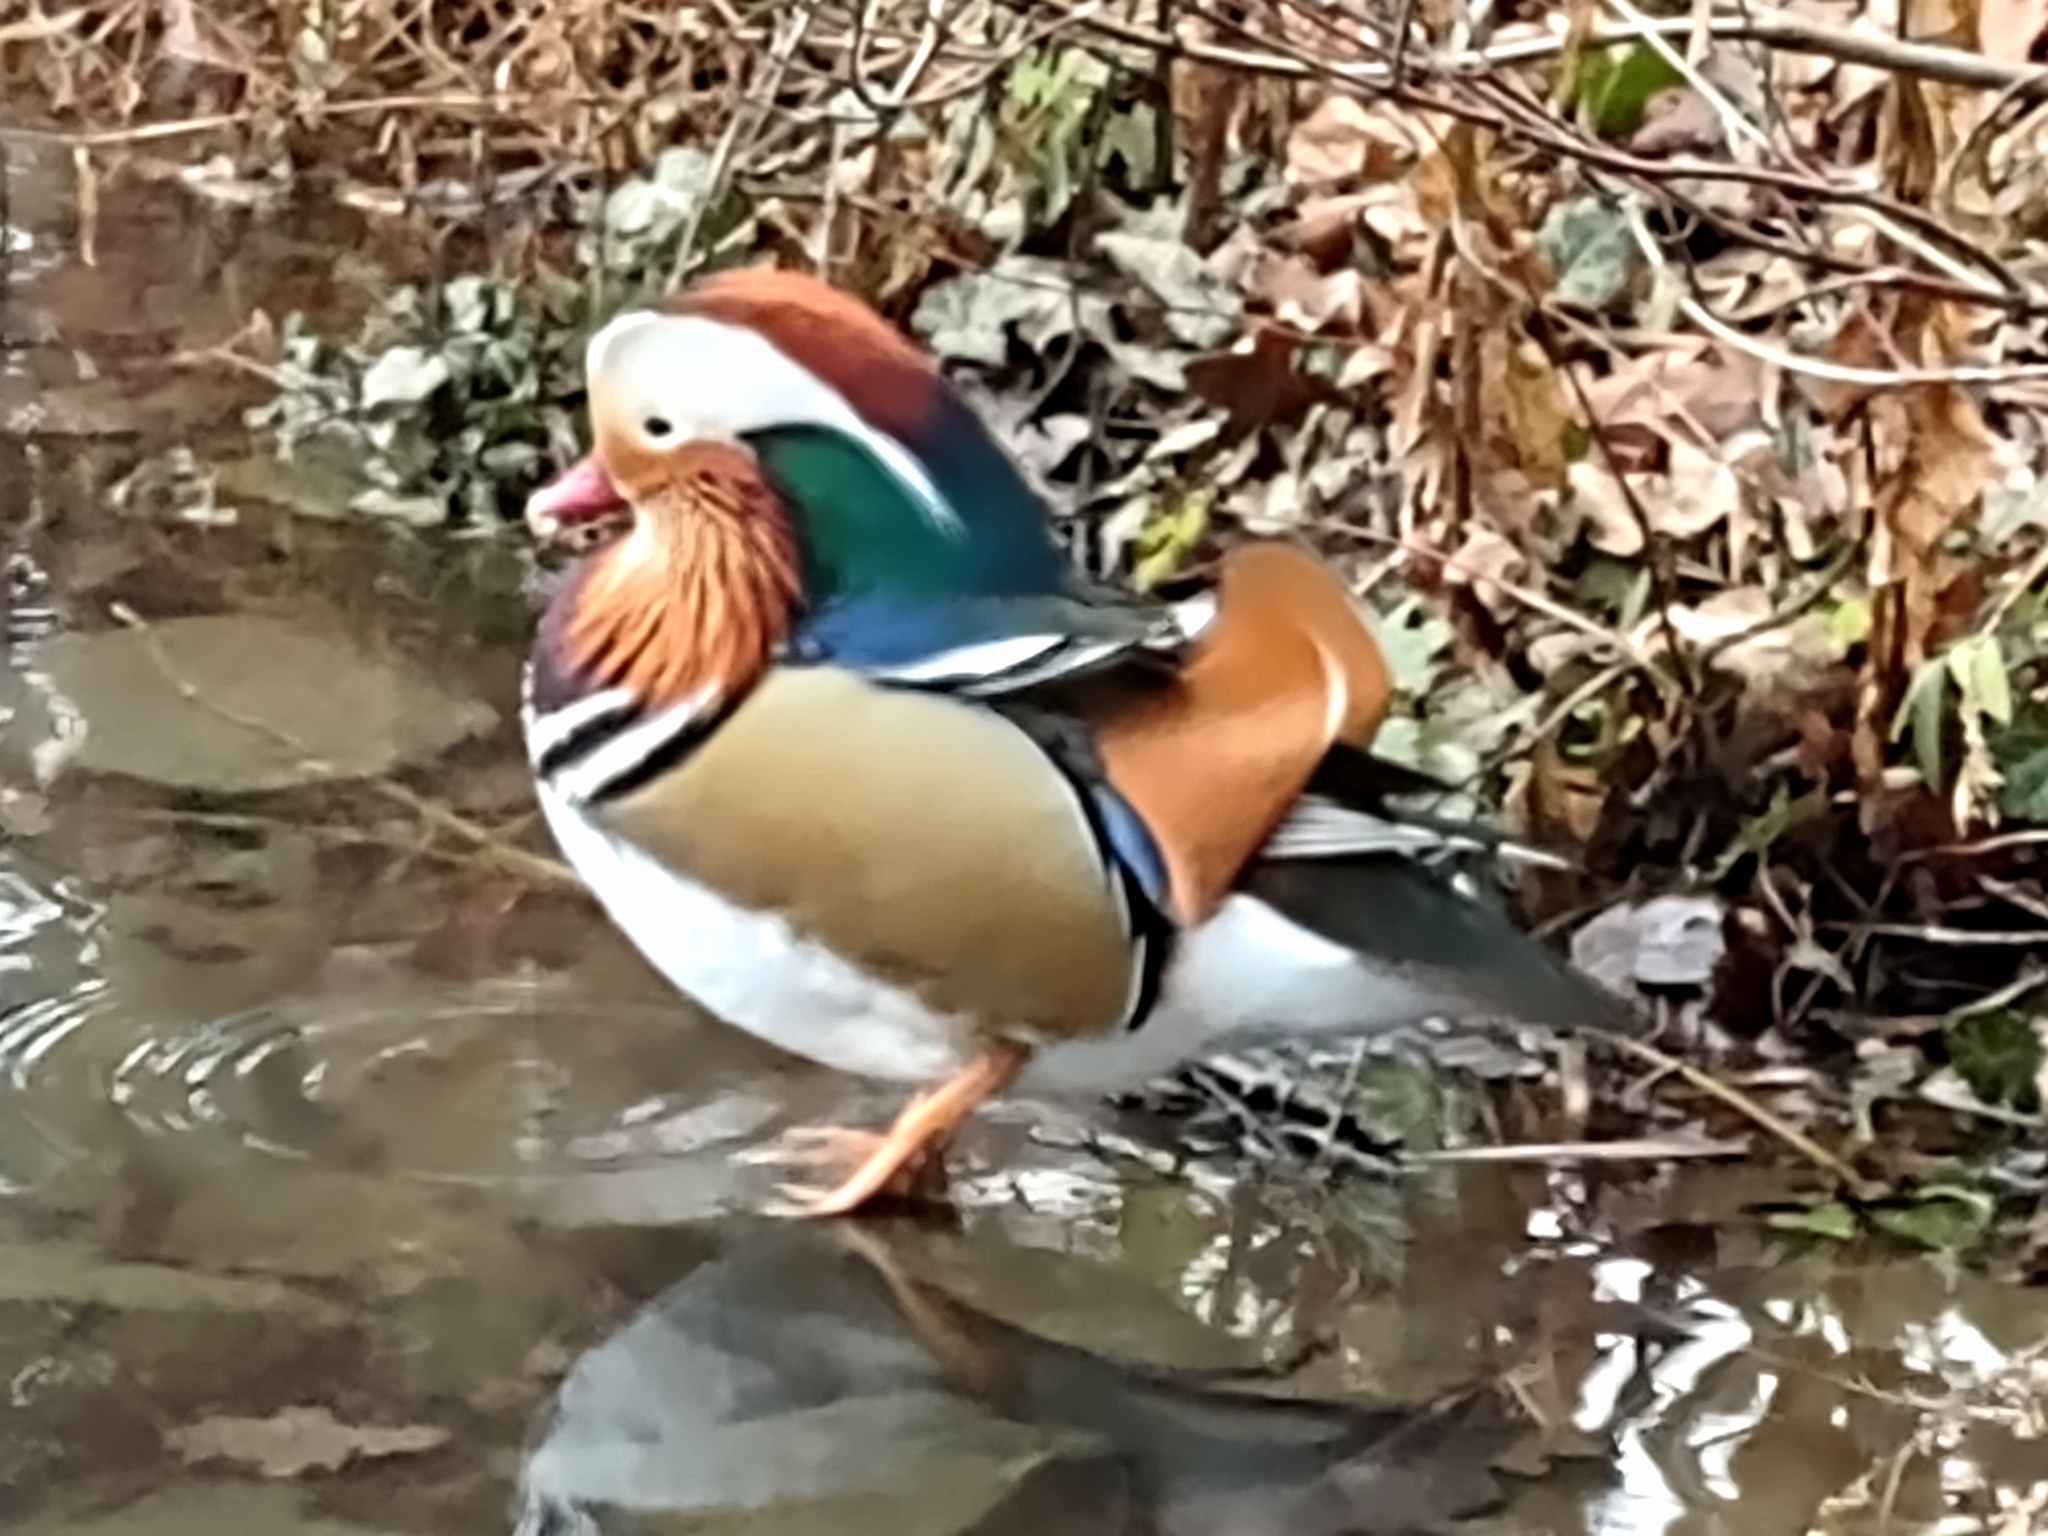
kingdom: Animalia
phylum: Chordata
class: Aves
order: Anseriformes
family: Anatidae
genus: Aix
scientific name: Aix galericulata
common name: Mandarin duck
